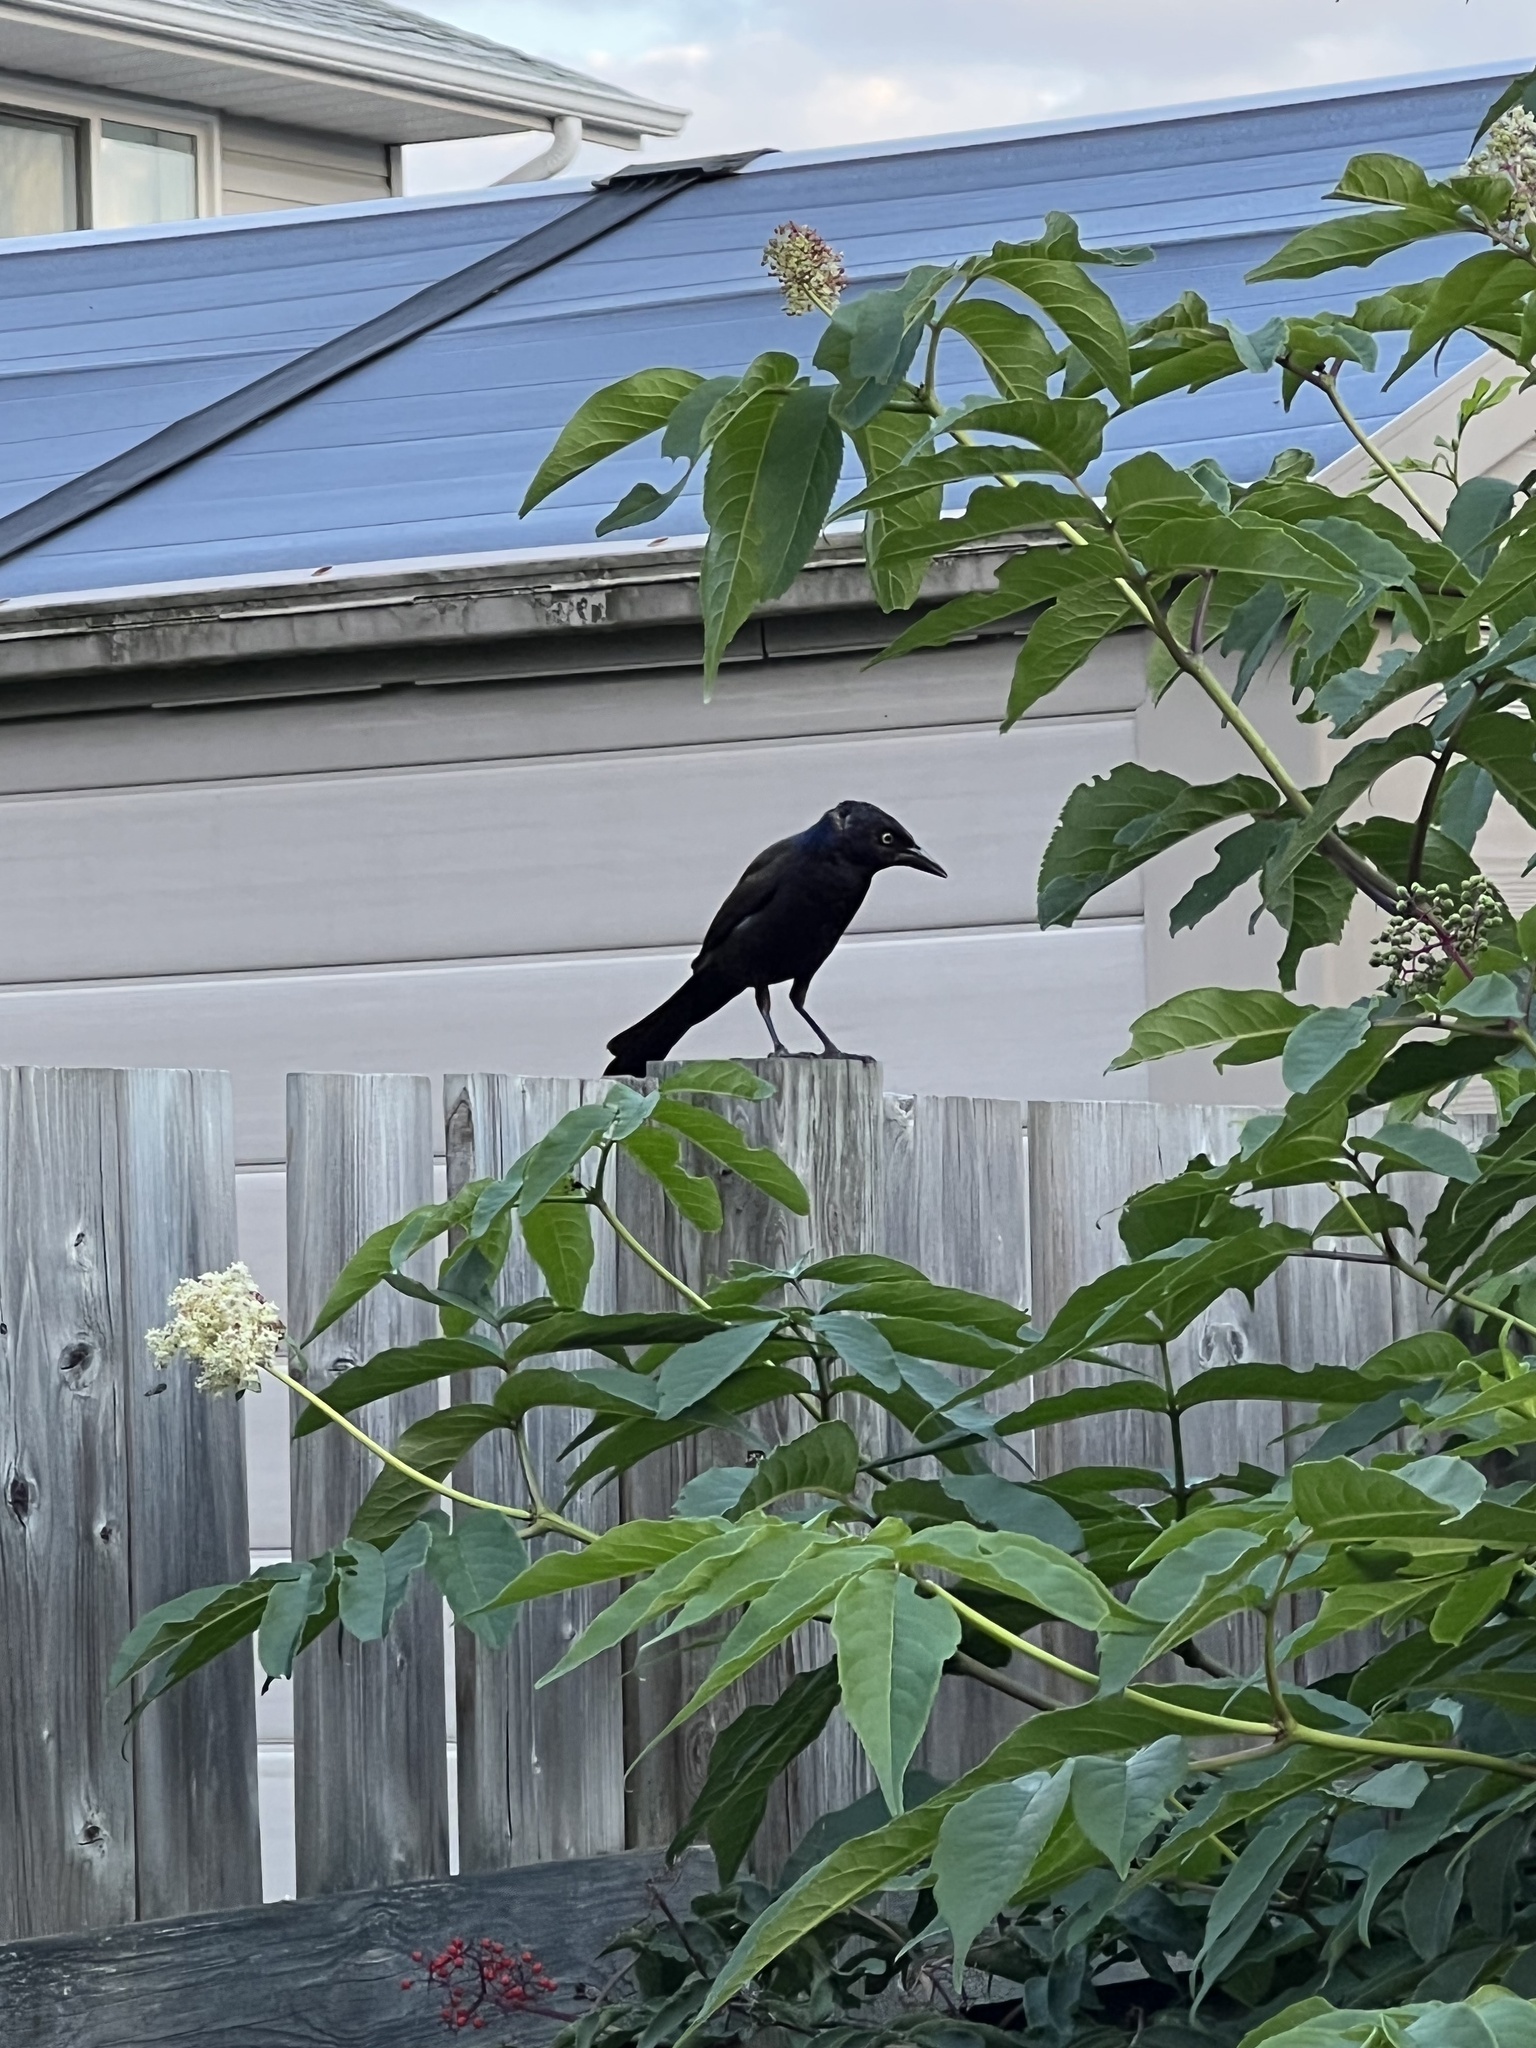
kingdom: Animalia
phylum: Chordata
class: Aves
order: Passeriformes
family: Icteridae
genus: Quiscalus
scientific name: Quiscalus quiscula
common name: Common grackle
